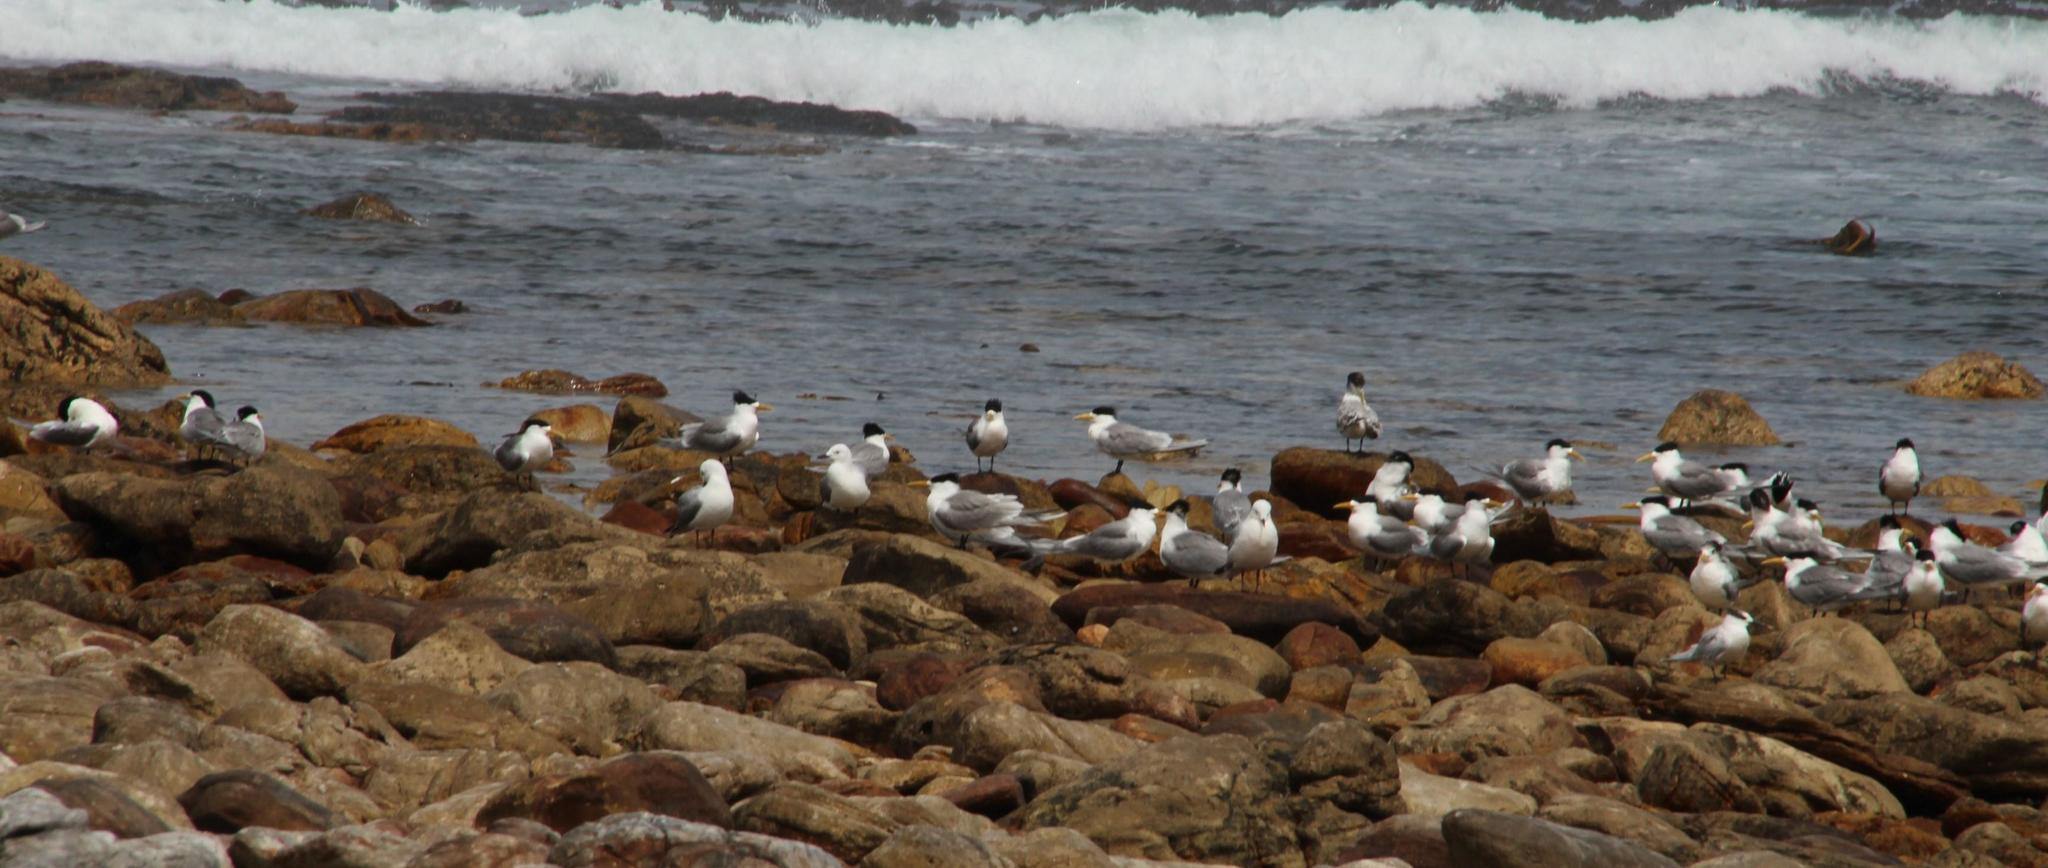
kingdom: Animalia
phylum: Chordata
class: Aves
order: Charadriiformes
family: Laridae
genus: Chroicocephalus
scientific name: Chroicocephalus hartlaubii
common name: Hartlaub's gull
